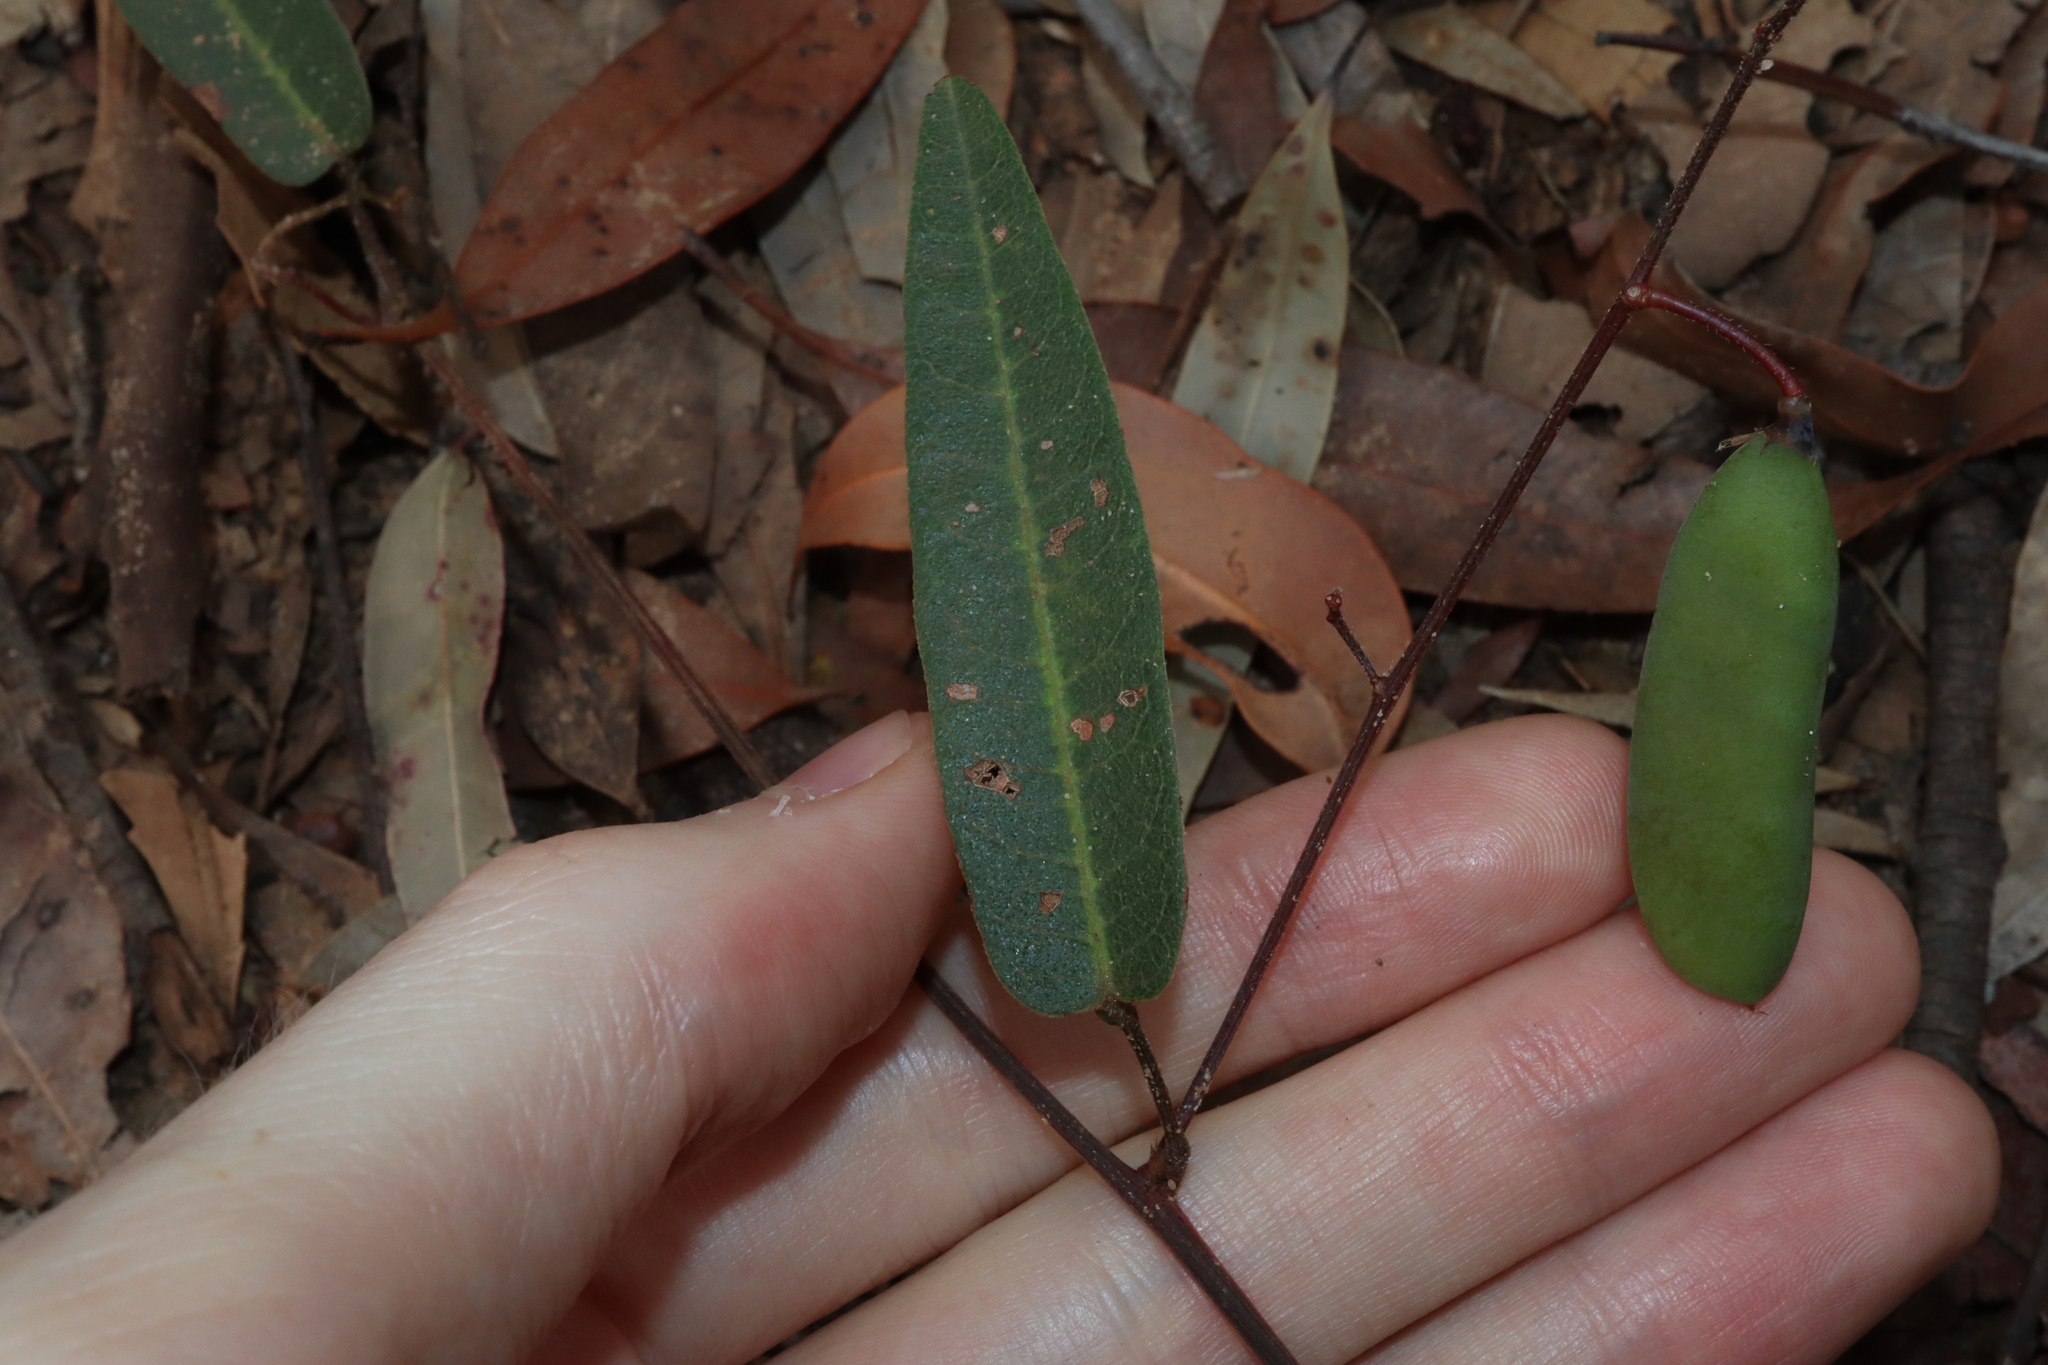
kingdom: Plantae
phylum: Tracheophyta
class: Magnoliopsida
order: Fabales
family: Fabaceae
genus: Hardenbergia
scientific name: Hardenbergia violacea
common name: Coral-pea
